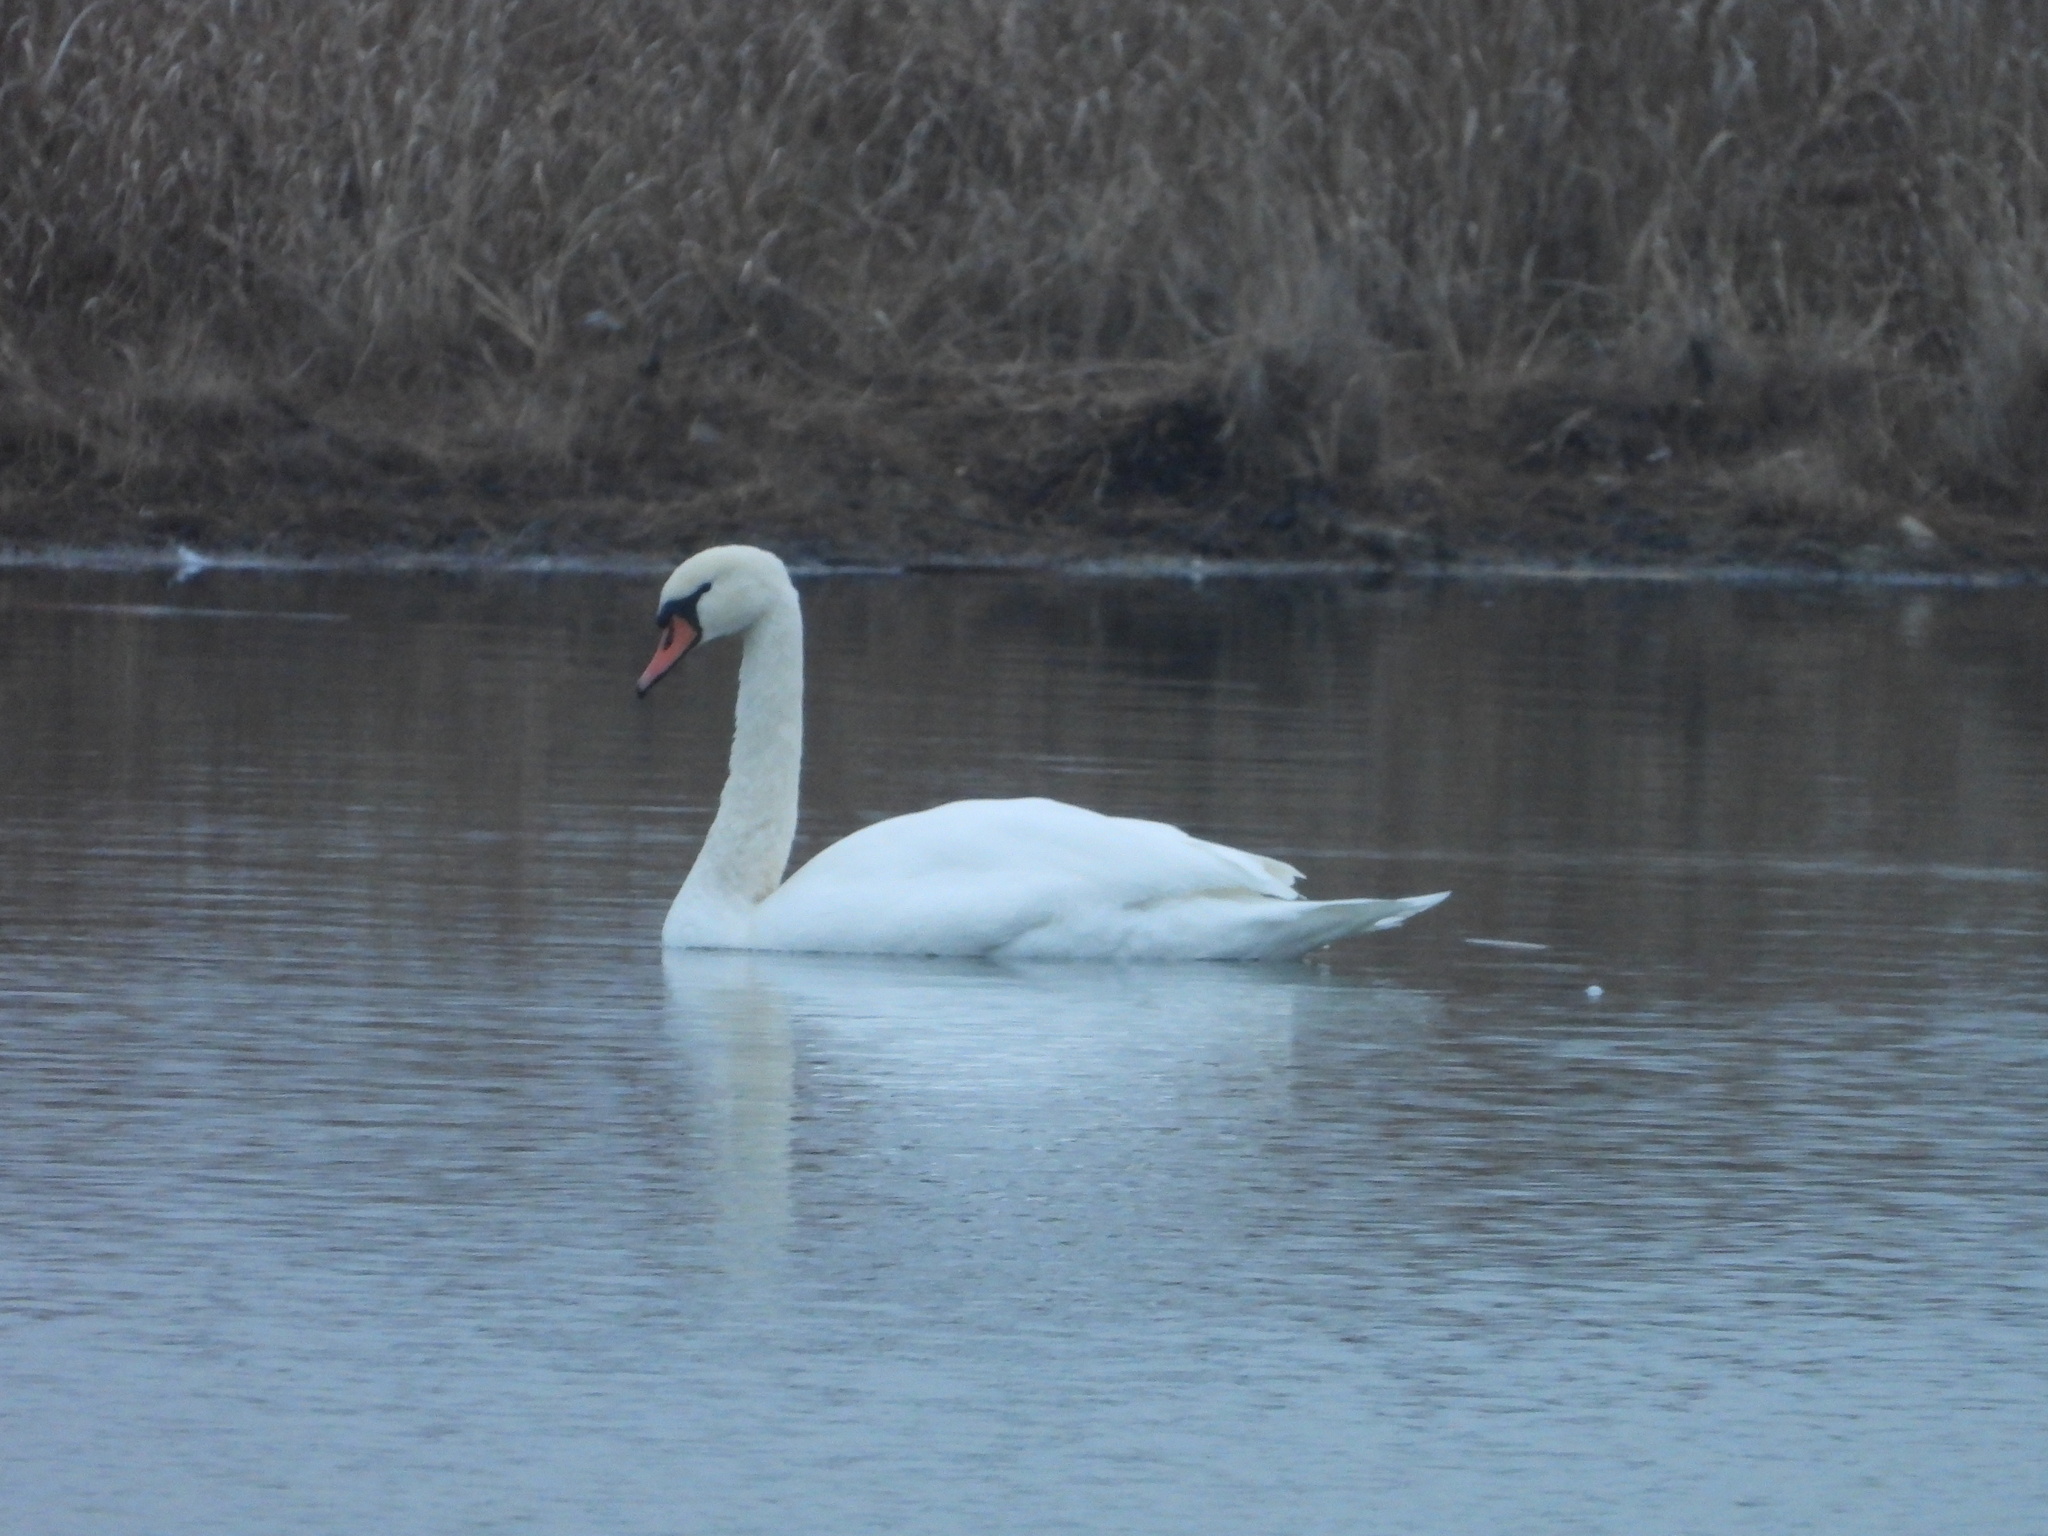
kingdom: Animalia
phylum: Chordata
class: Aves
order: Anseriformes
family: Anatidae
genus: Cygnus
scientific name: Cygnus olor
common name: Mute swan
